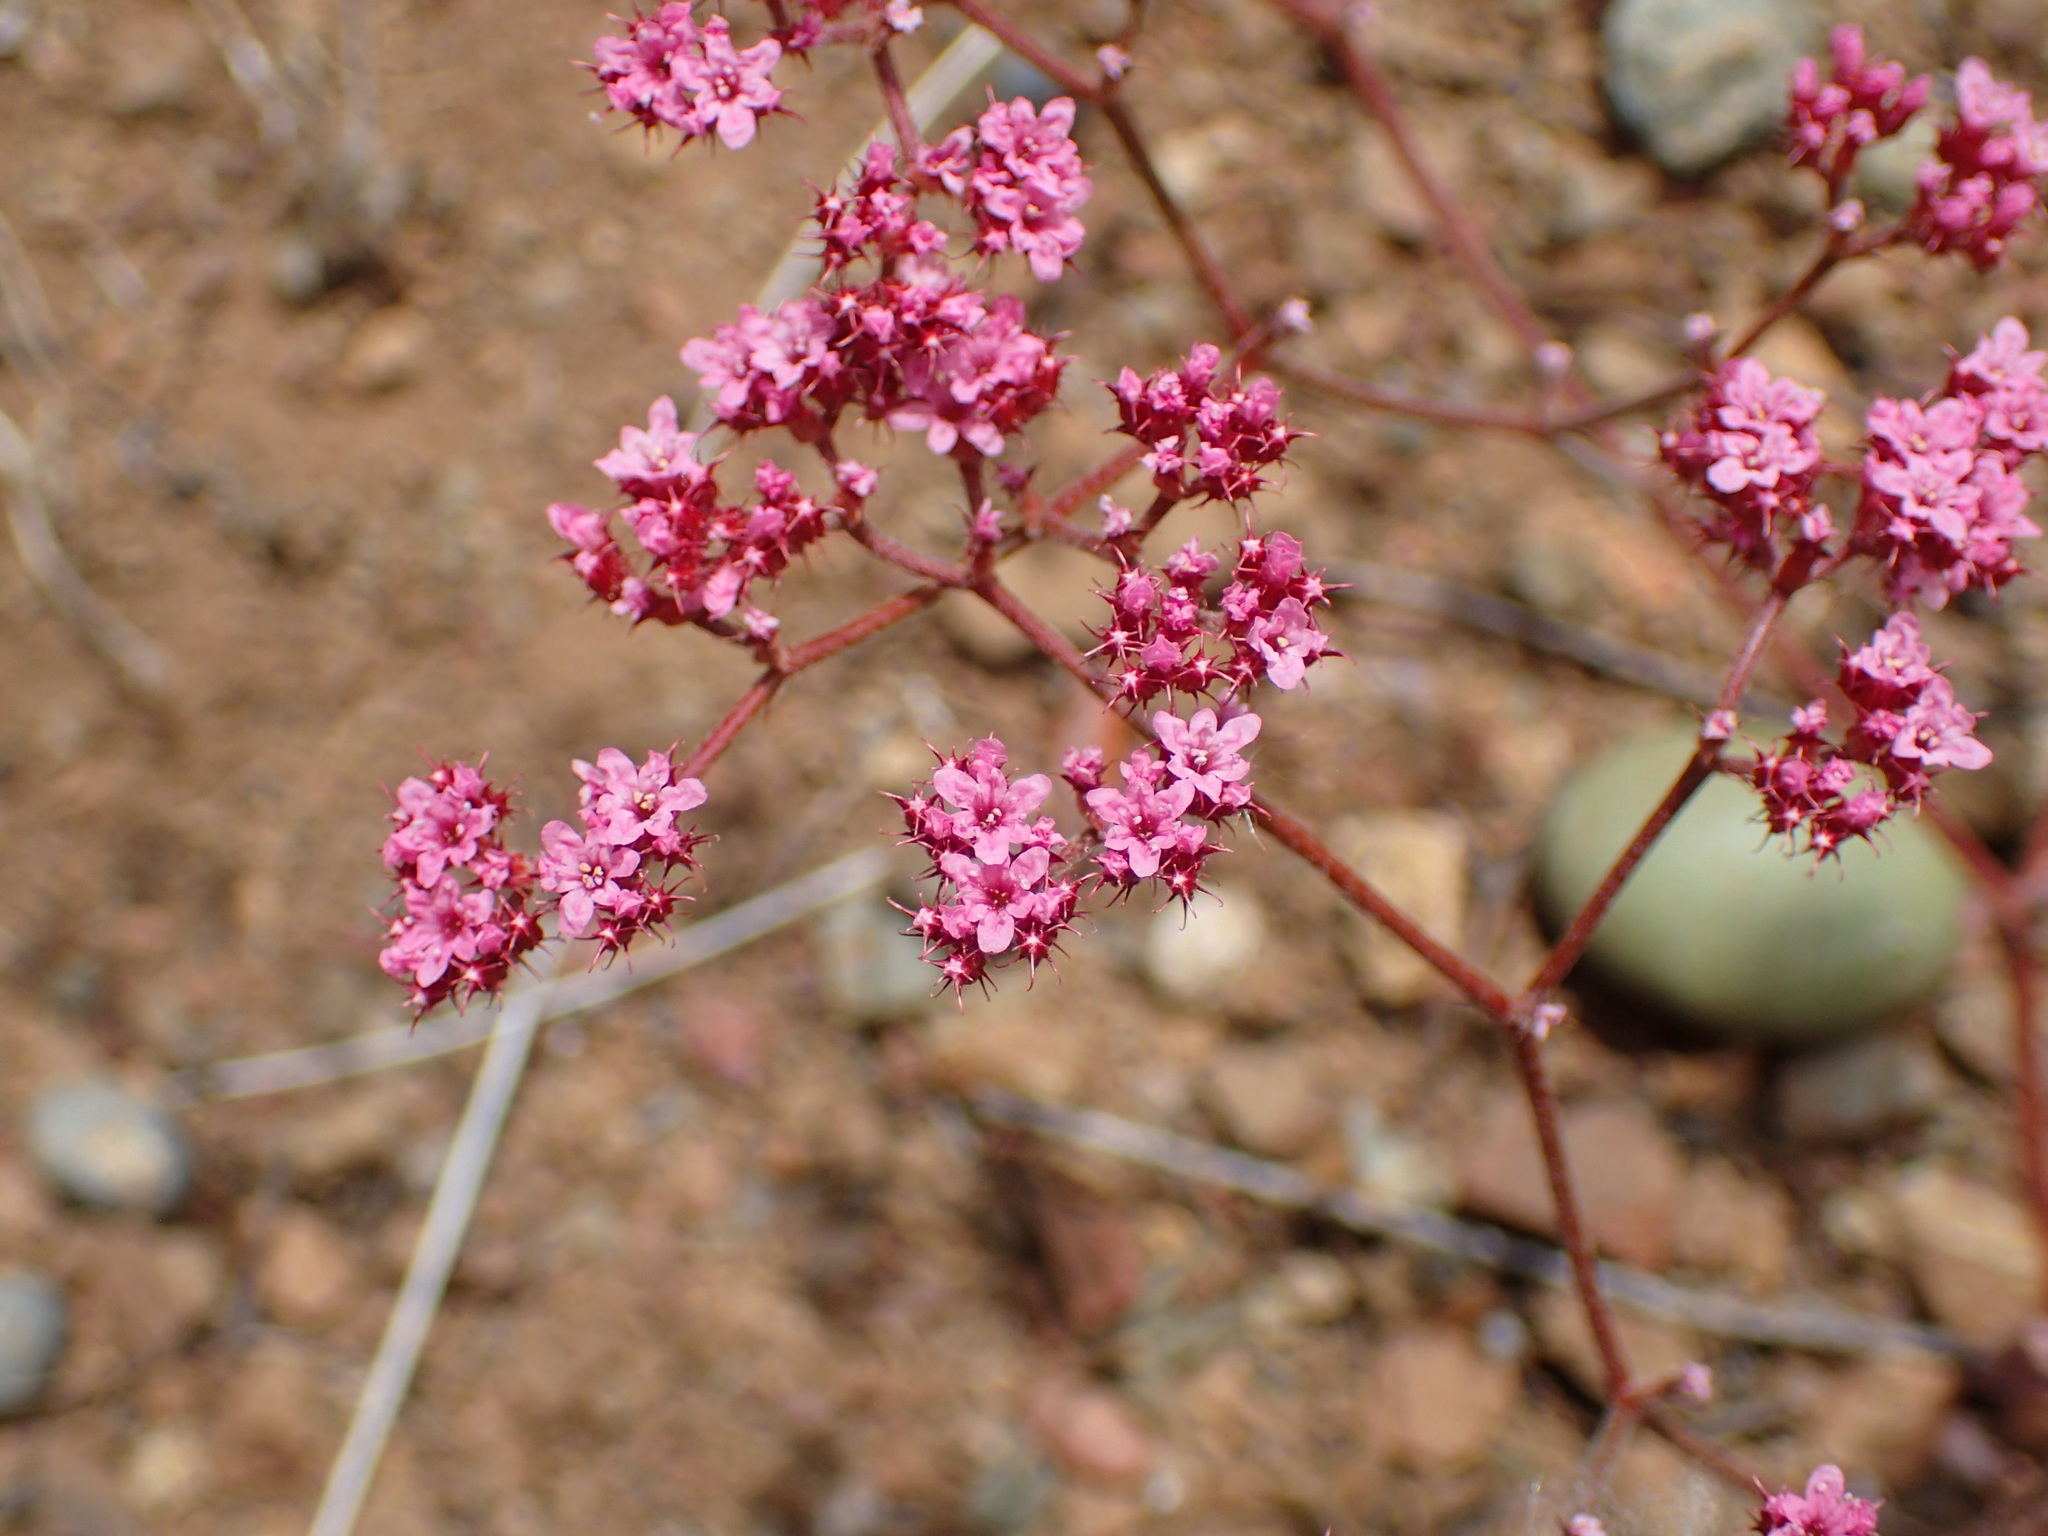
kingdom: Plantae
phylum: Tracheophyta
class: Magnoliopsida
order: Caryophyllales
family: Polygonaceae
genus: Chorizanthe
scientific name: Chorizanthe staticoides
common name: Turkish rugging
